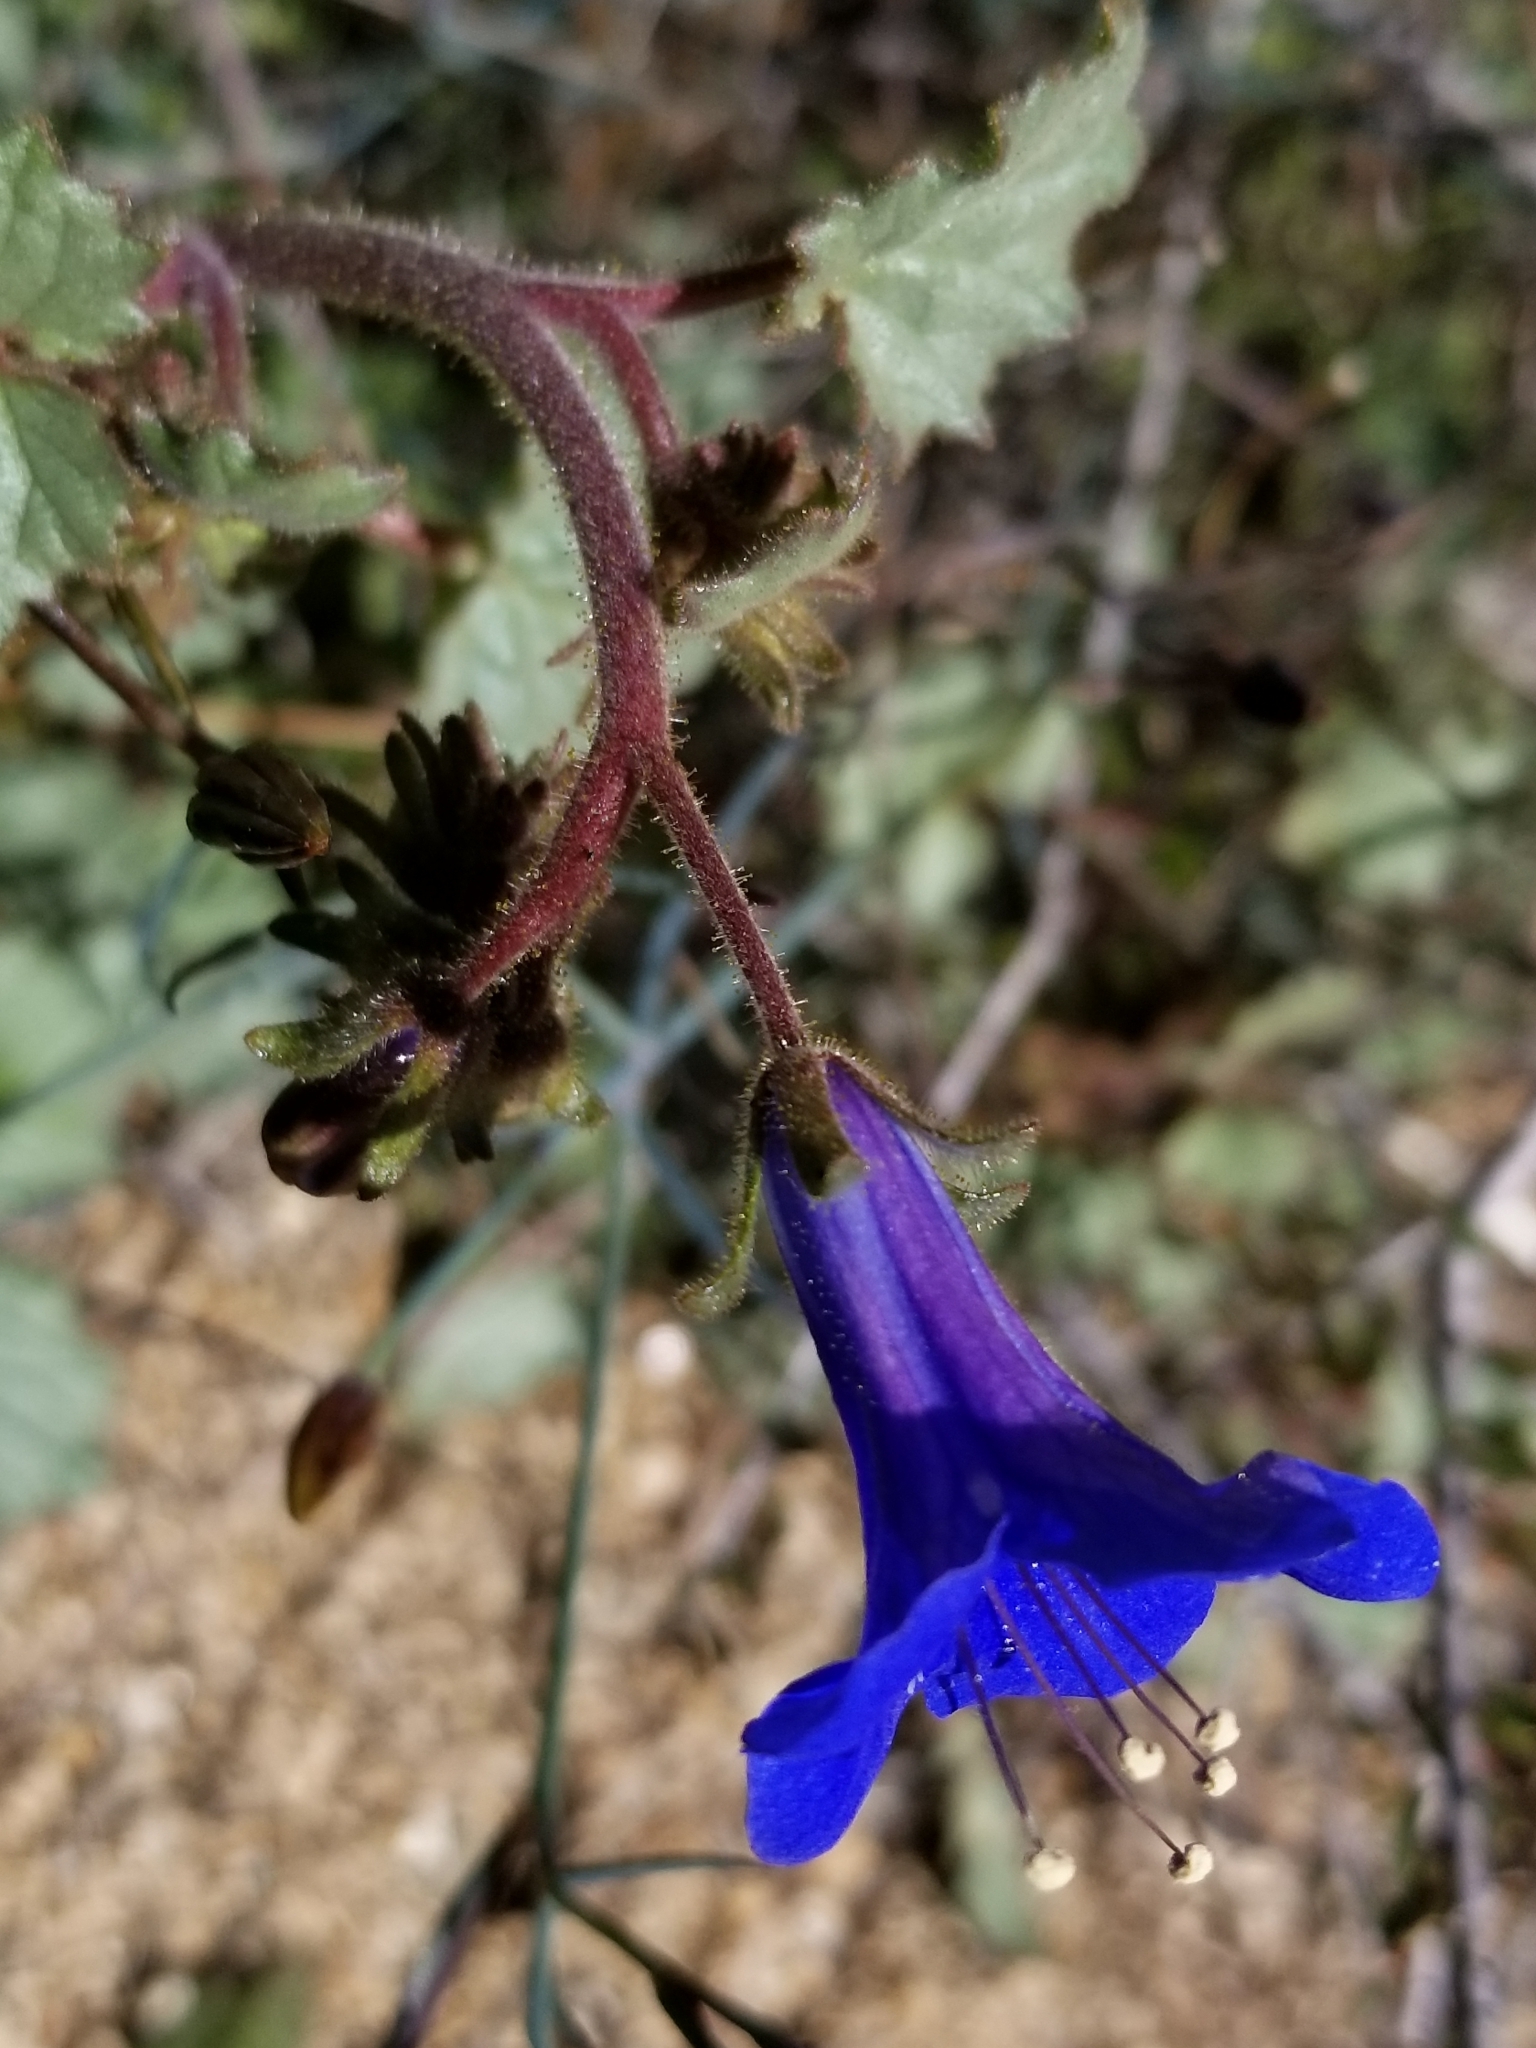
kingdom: Plantae
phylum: Tracheophyta
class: Magnoliopsida
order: Boraginales
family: Hydrophyllaceae
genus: Phacelia
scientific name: Phacelia campanularia
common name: California bluebell
